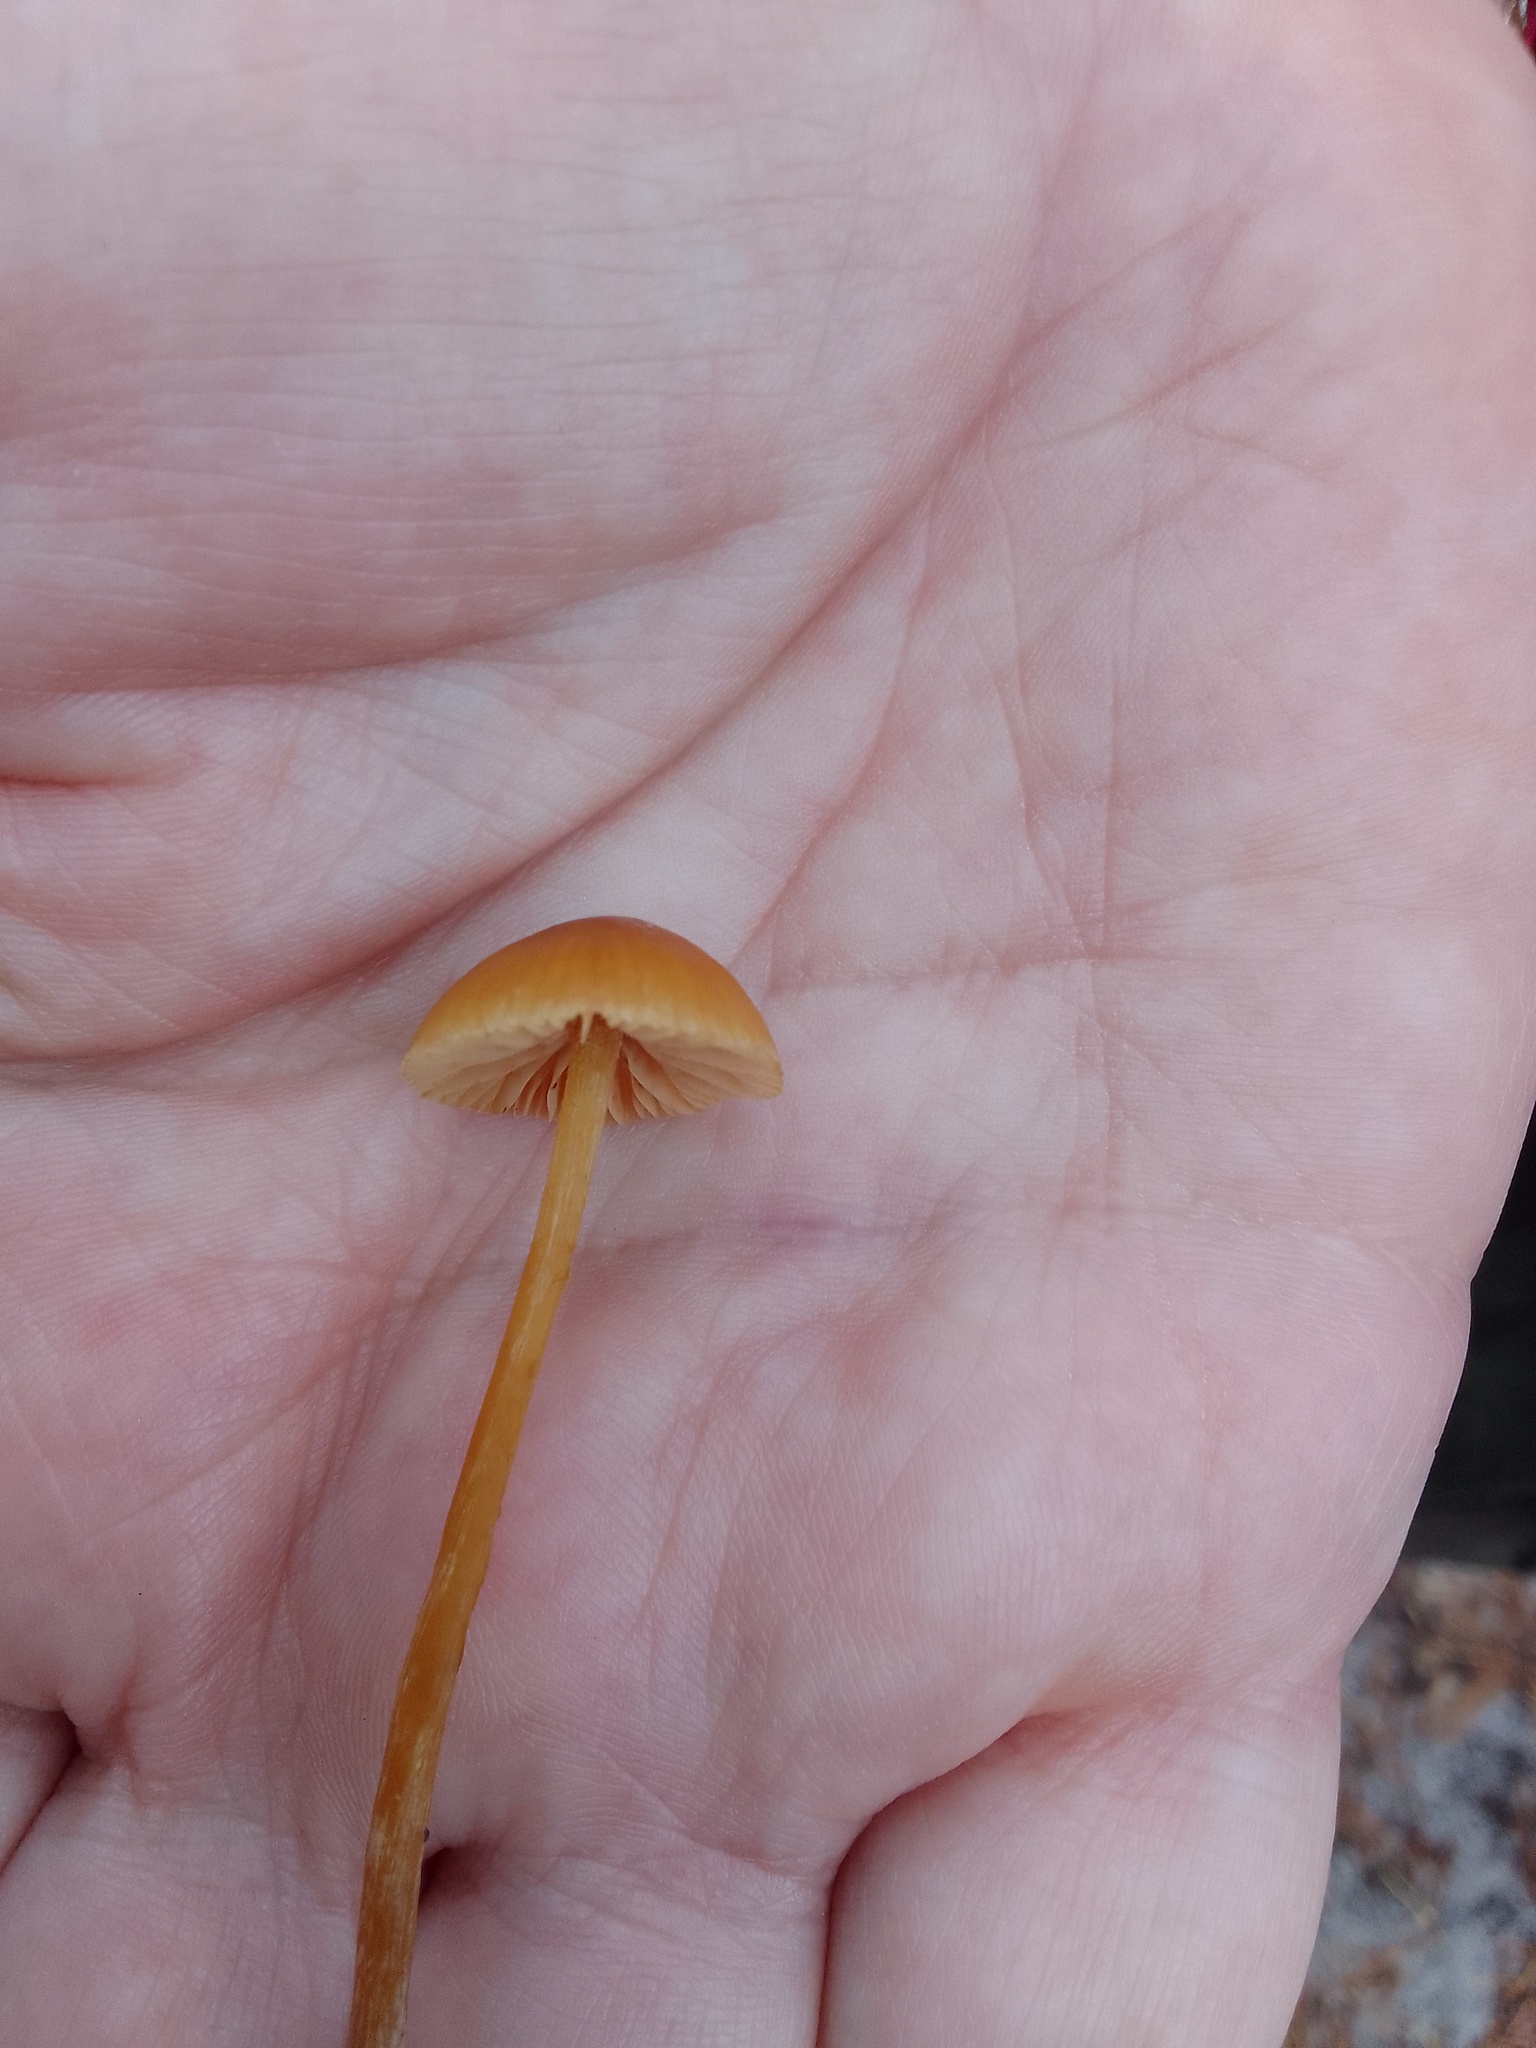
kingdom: Fungi
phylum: Basidiomycota
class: Agaricomycetes
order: Agaricales
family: Hymenogastraceae
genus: Galerina
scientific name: Galerina paludosa
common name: Bog bell
